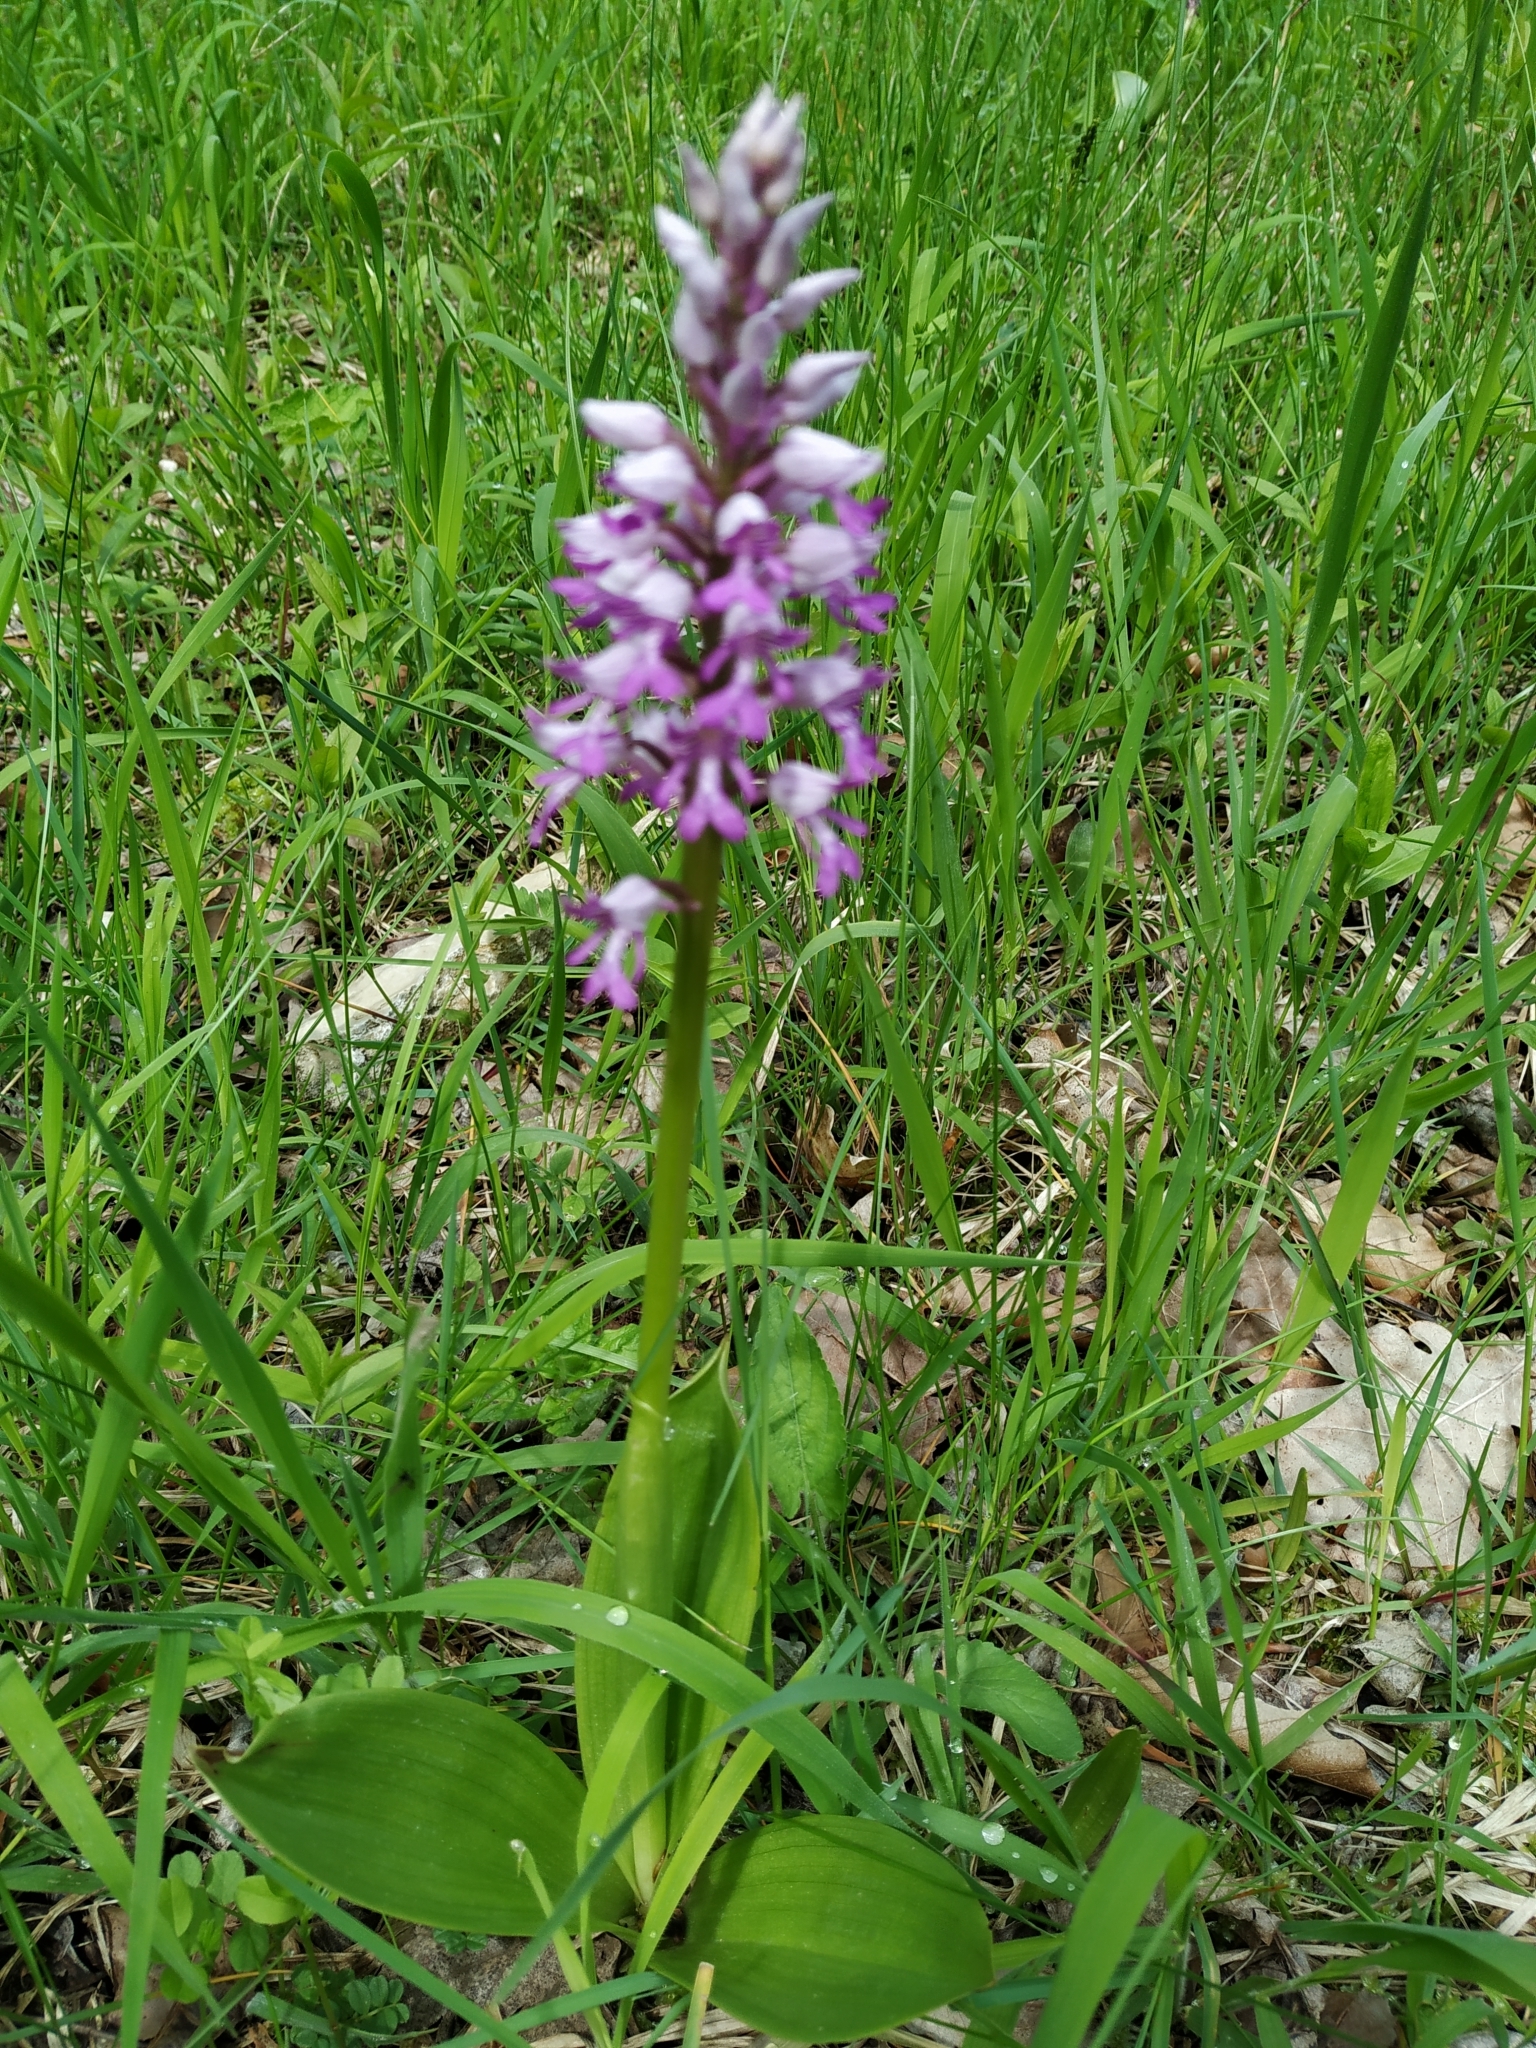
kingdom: Plantae
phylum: Tracheophyta
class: Liliopsida
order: Asparagales
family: Orchidaceae
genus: Orchis
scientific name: Orchis militaris
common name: Military orchid
